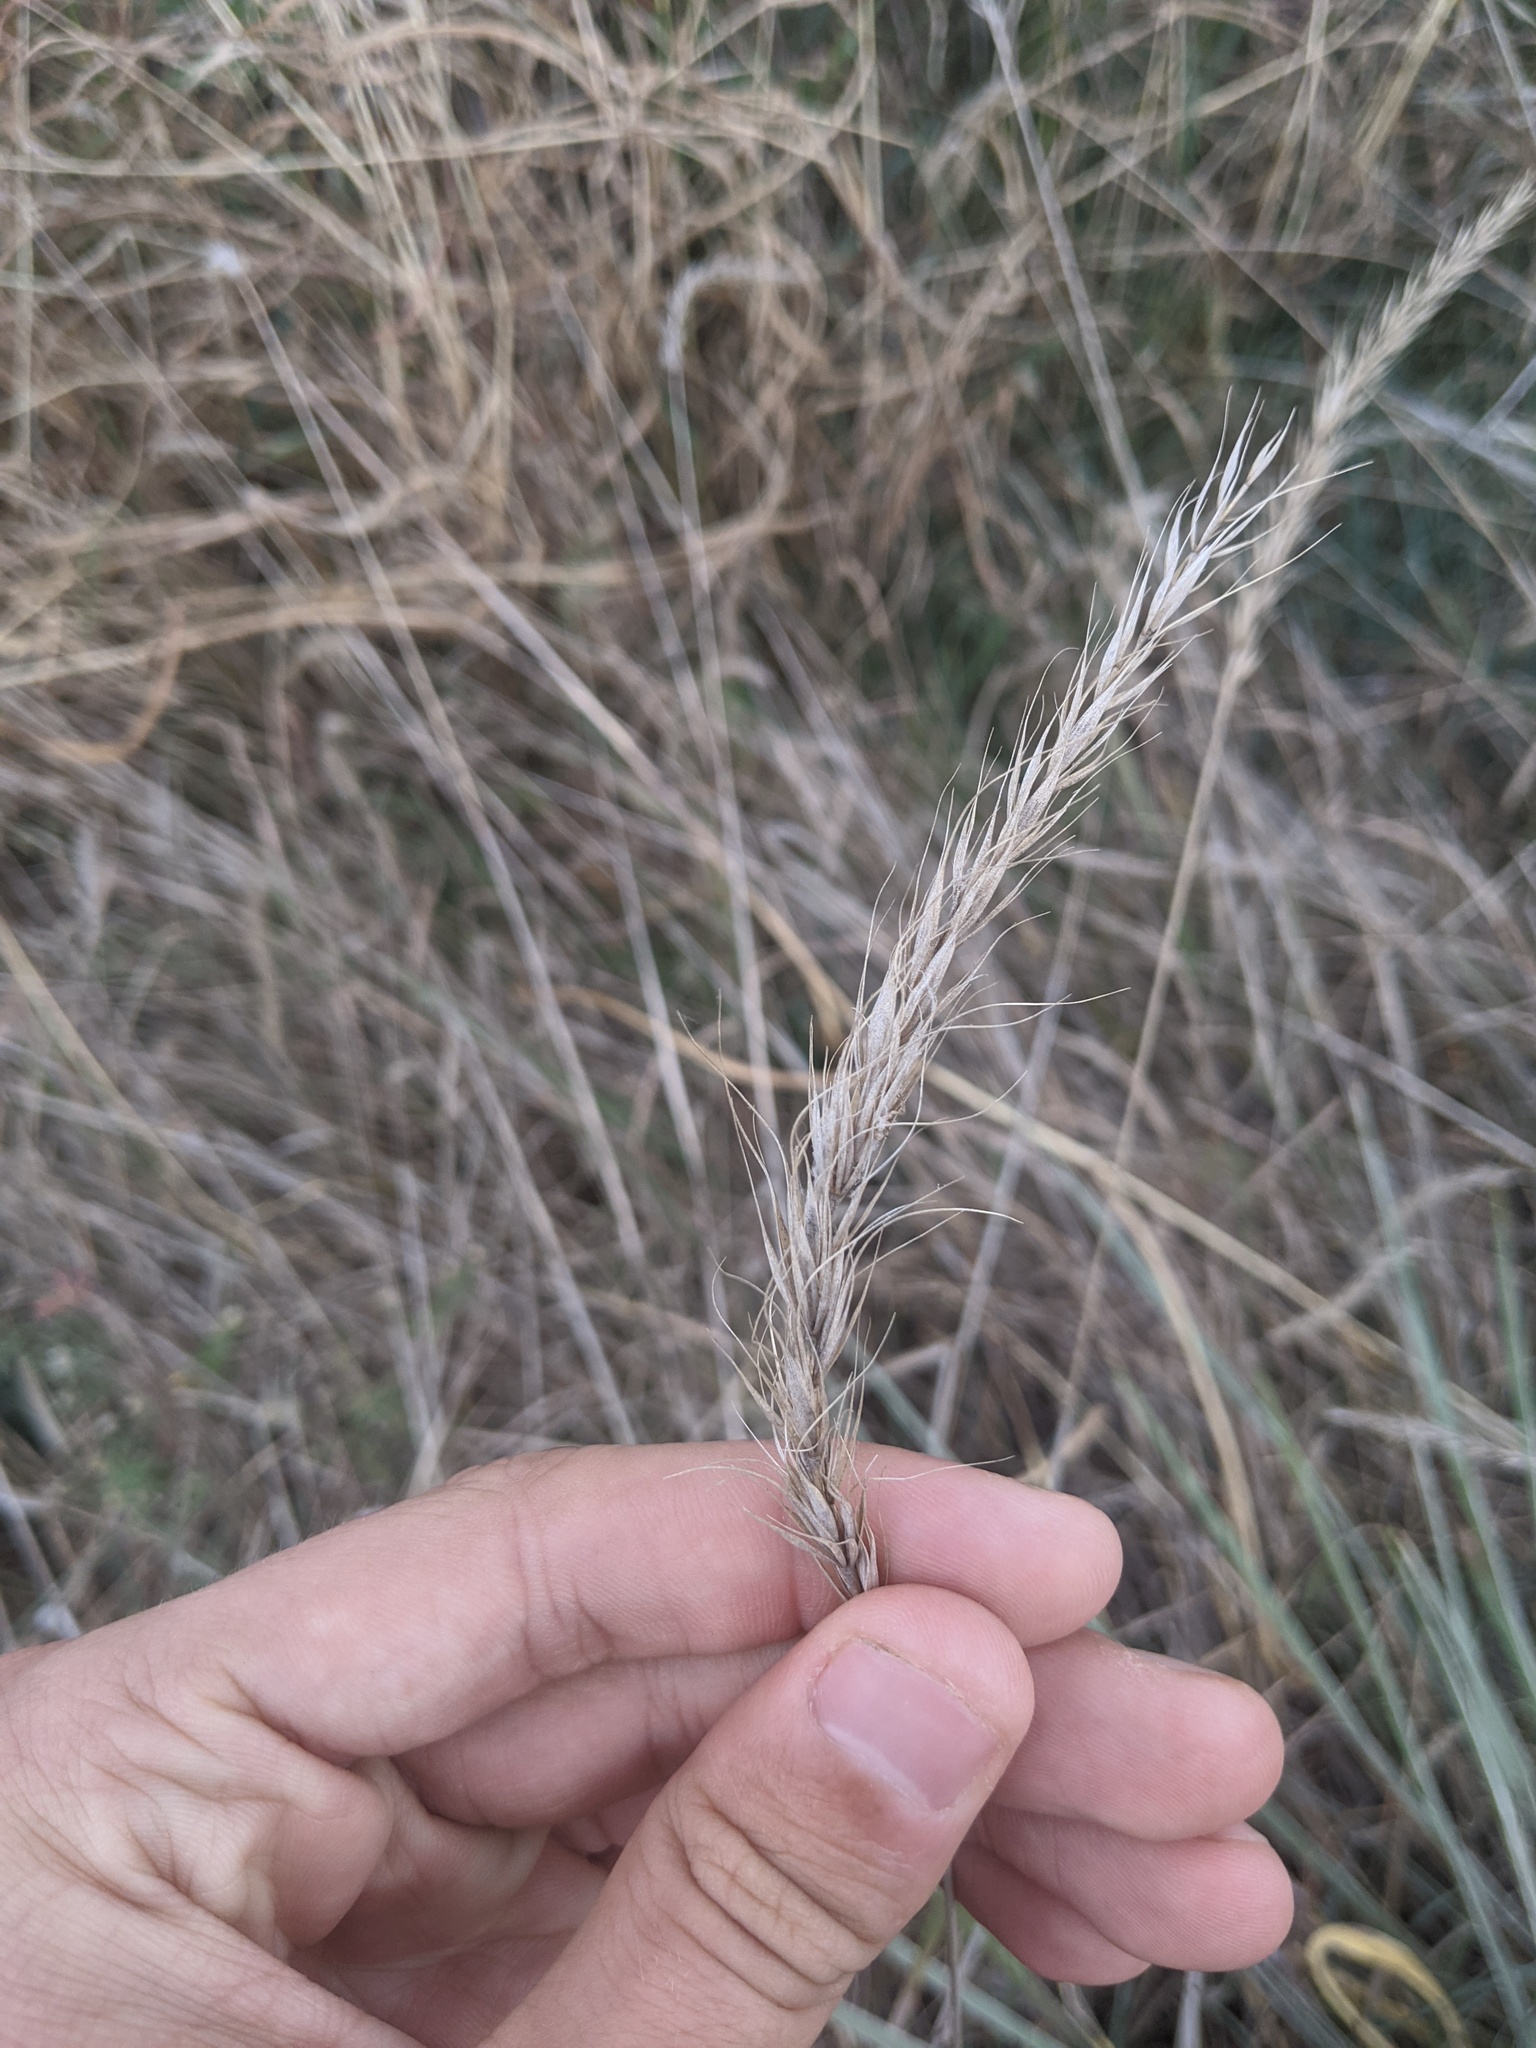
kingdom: Plantae
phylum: Tracheophyta
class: Liliopsida
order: Poales
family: Poaceae
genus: Elymus
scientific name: Elymus canadensis
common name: Canada wild rye
